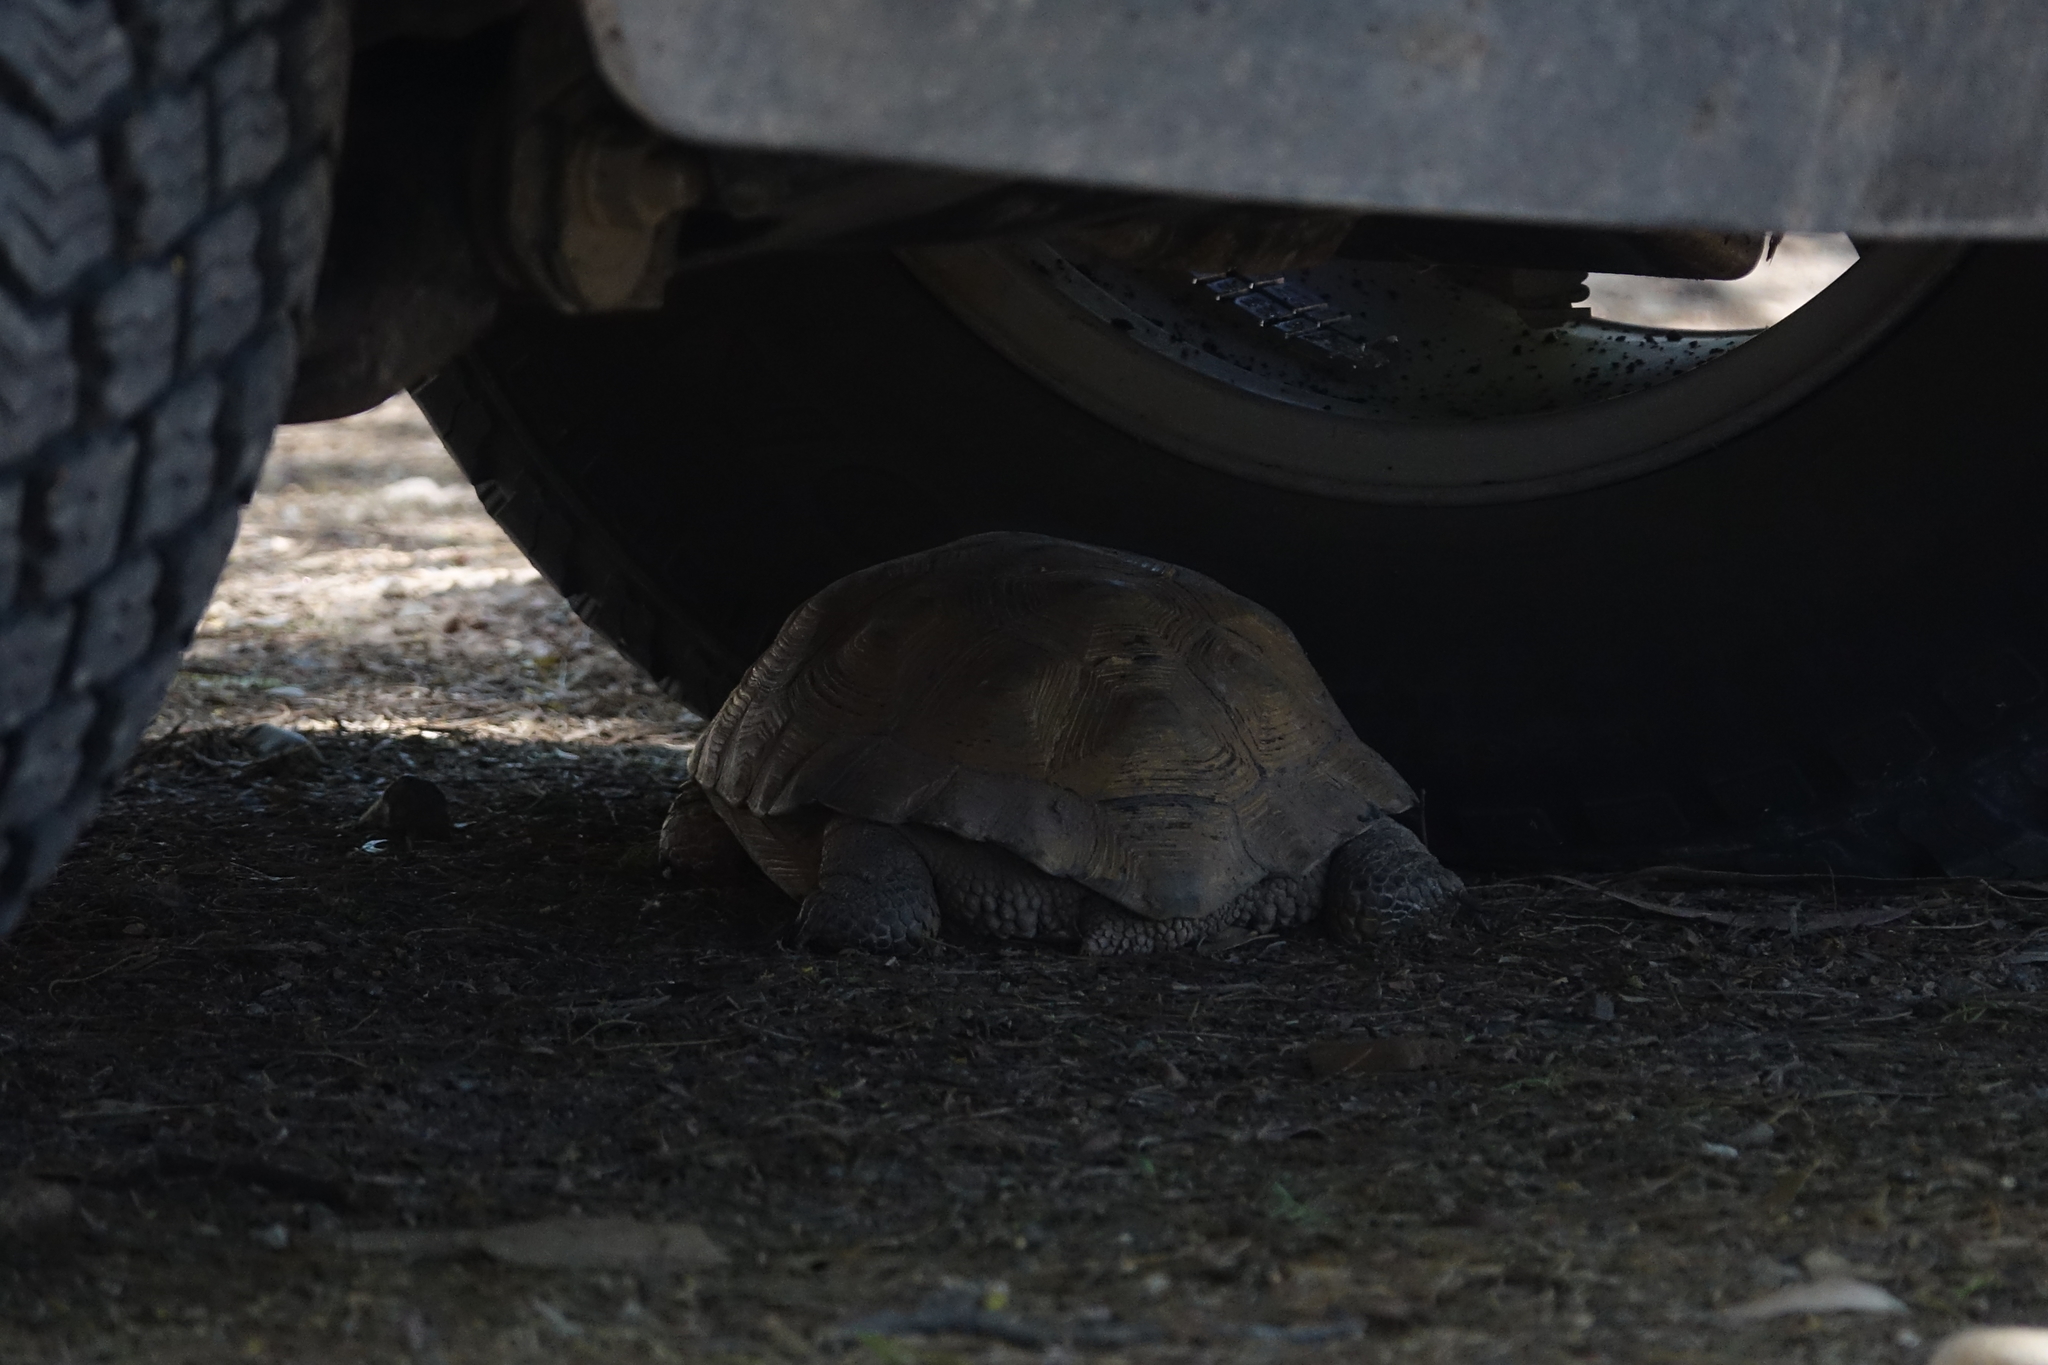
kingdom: Animalia
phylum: Chordata
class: Testudines
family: Testudinidae
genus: Chelonoidis
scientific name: Chelonoidis chilensis
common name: Chaco tortoise
